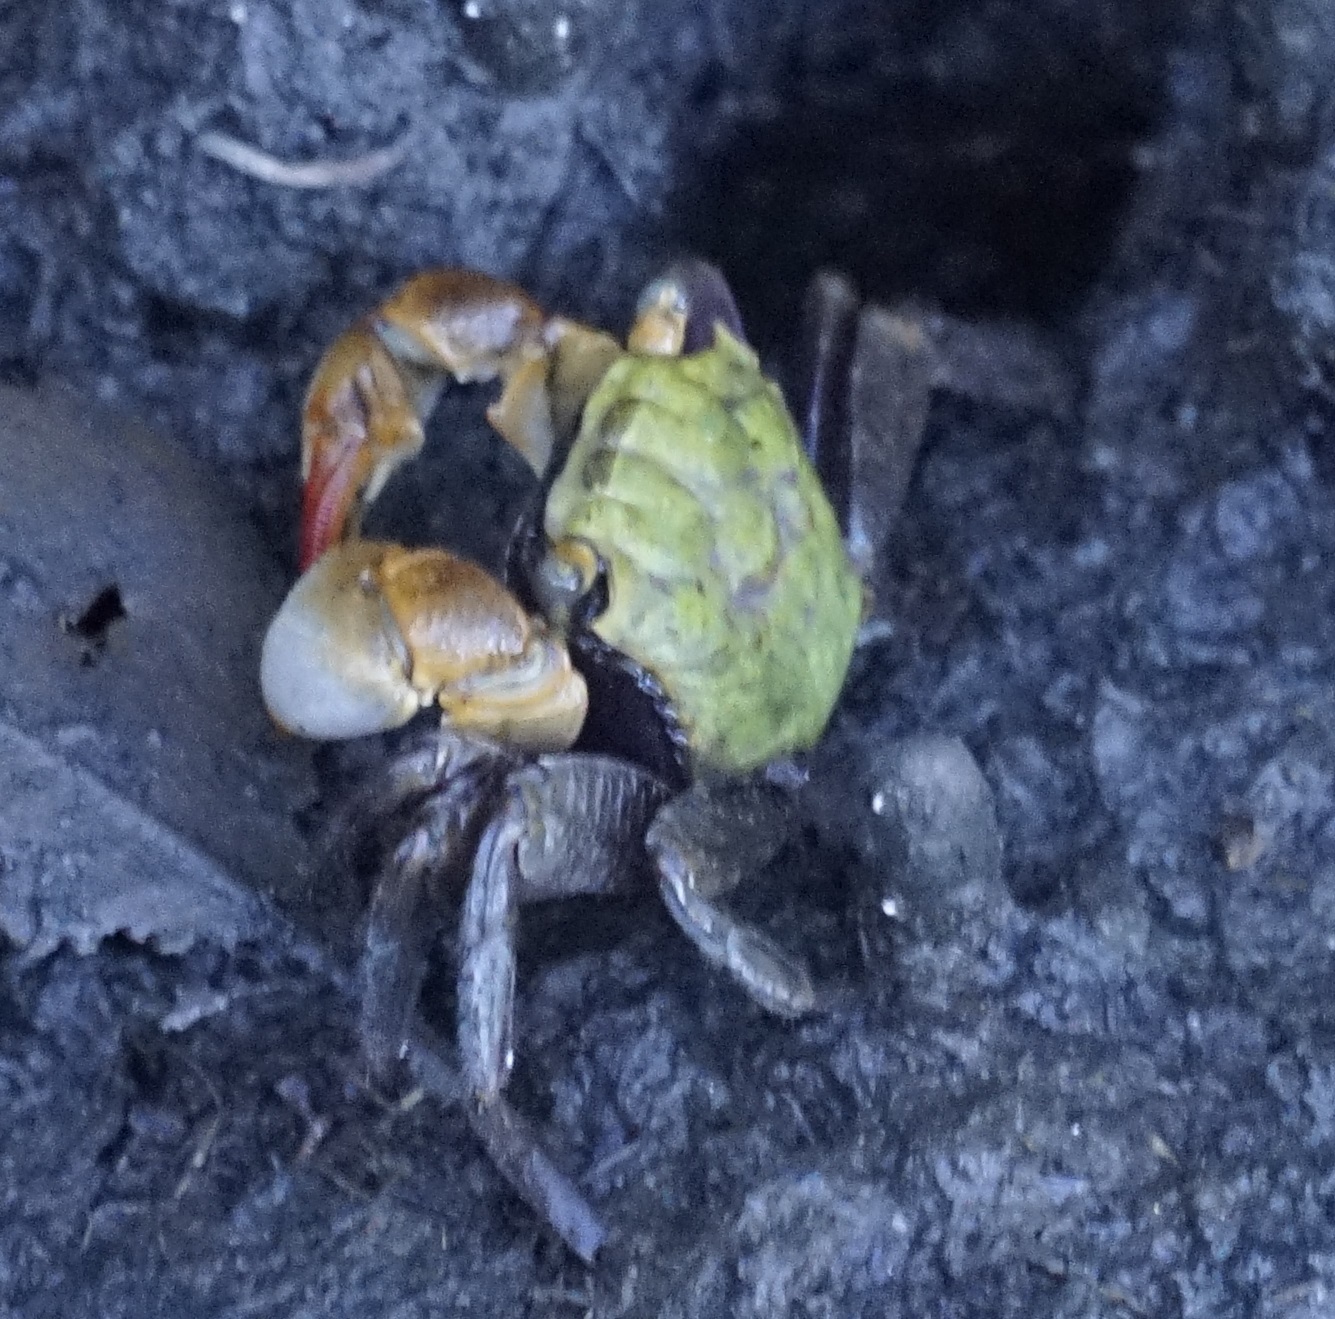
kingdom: Animalia
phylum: Arthropoda
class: Malacostraca
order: Decapoda
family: Sesarmidae
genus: Parasesarma
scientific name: Parasesarma erythodactylum
